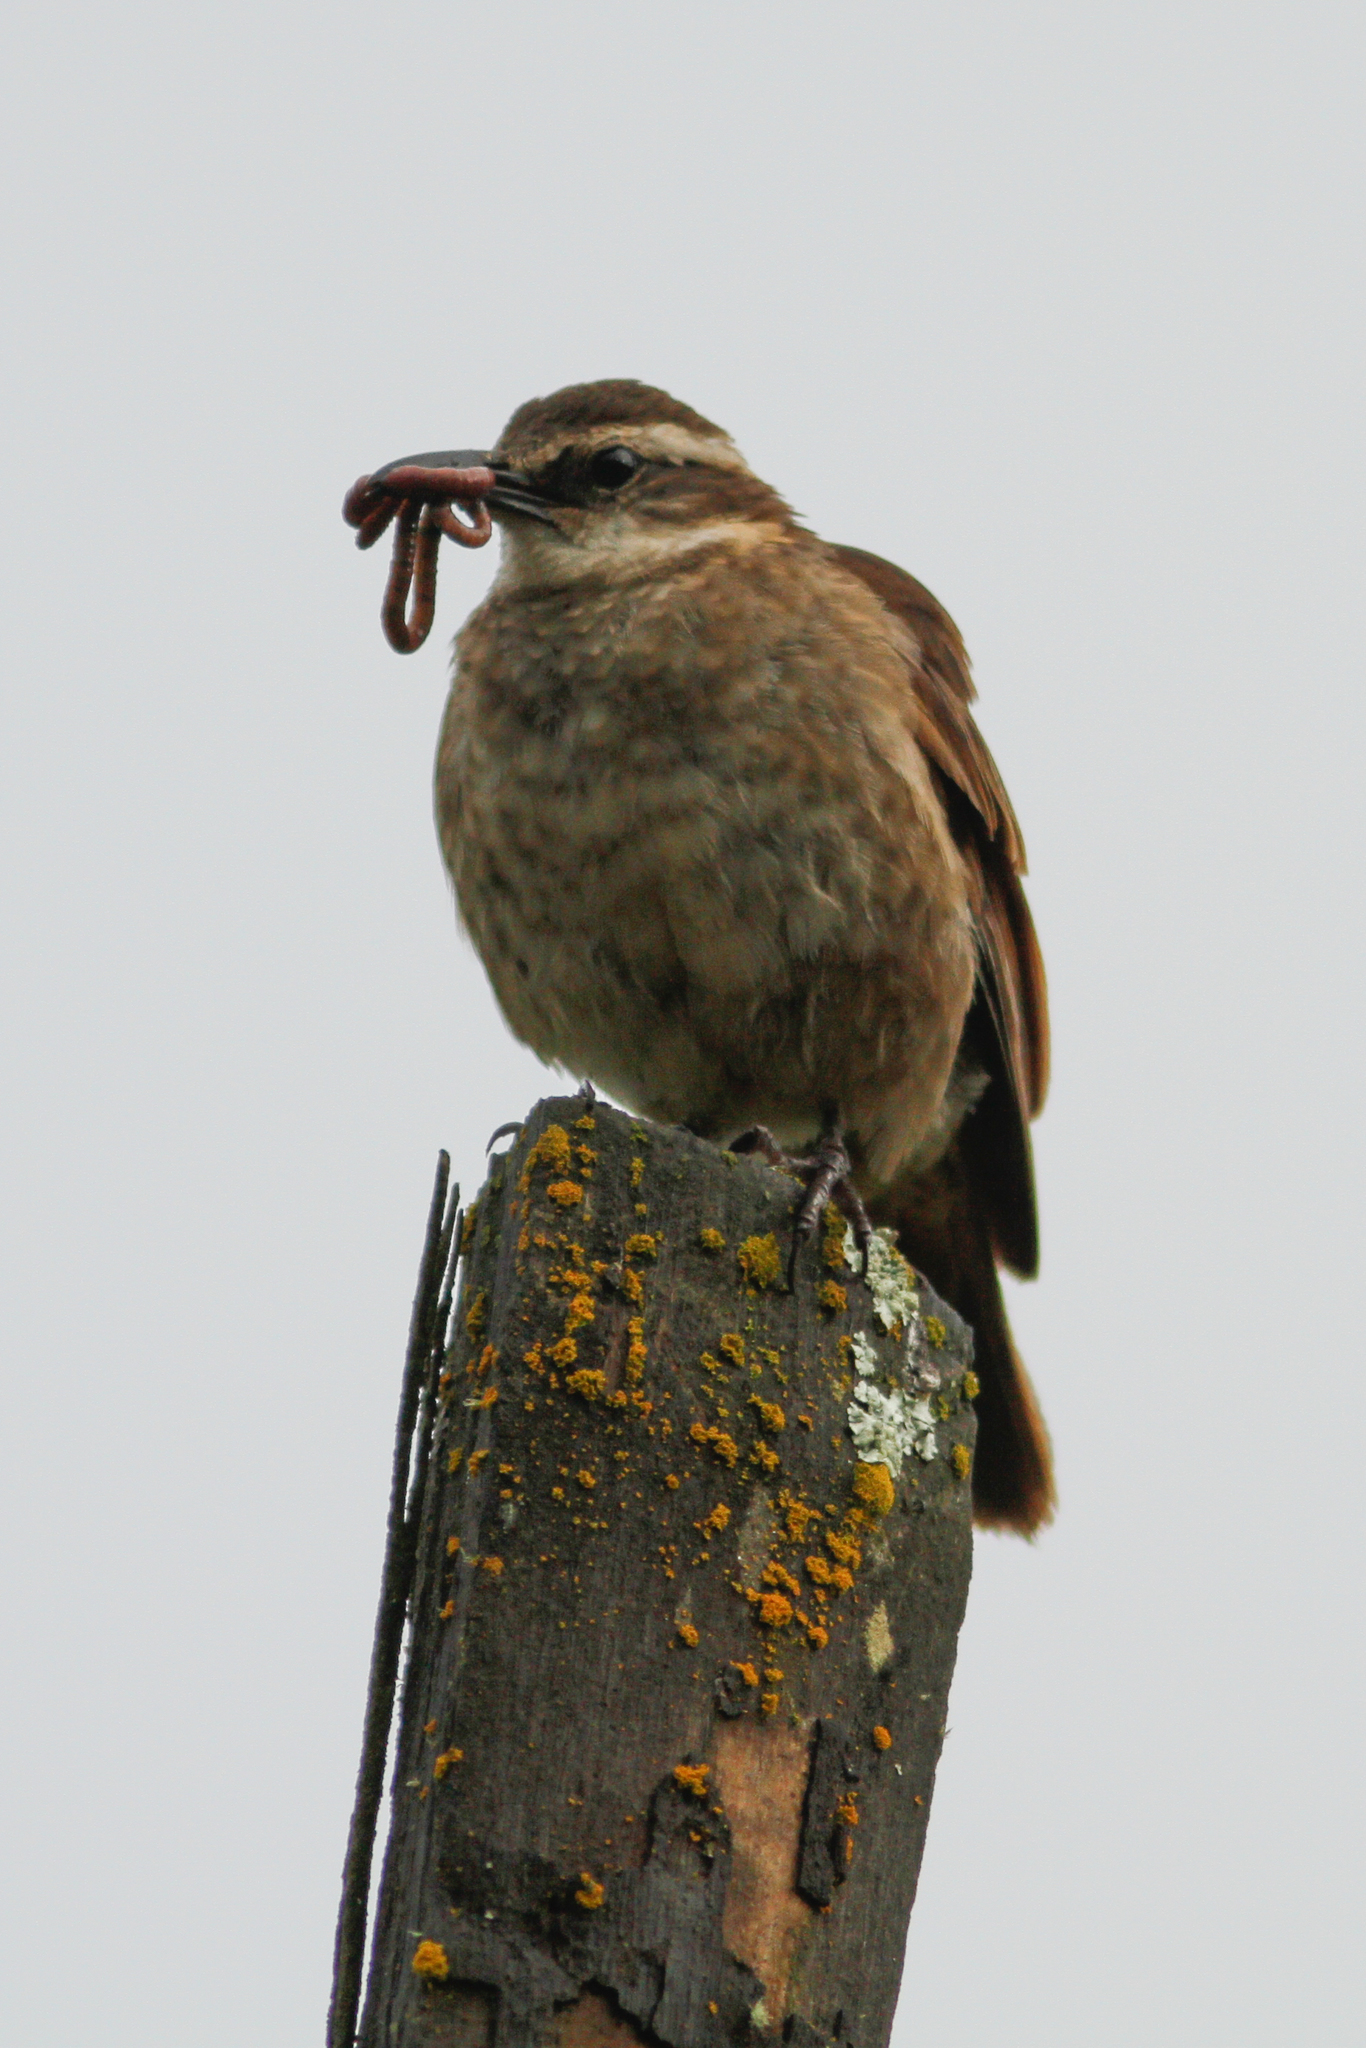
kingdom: Animalia
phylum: Chordata
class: Aves
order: Passeriformes
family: Furnariidae
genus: Cinclodes
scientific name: Cinclodes excelsior
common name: Stout-billed cinclodes
